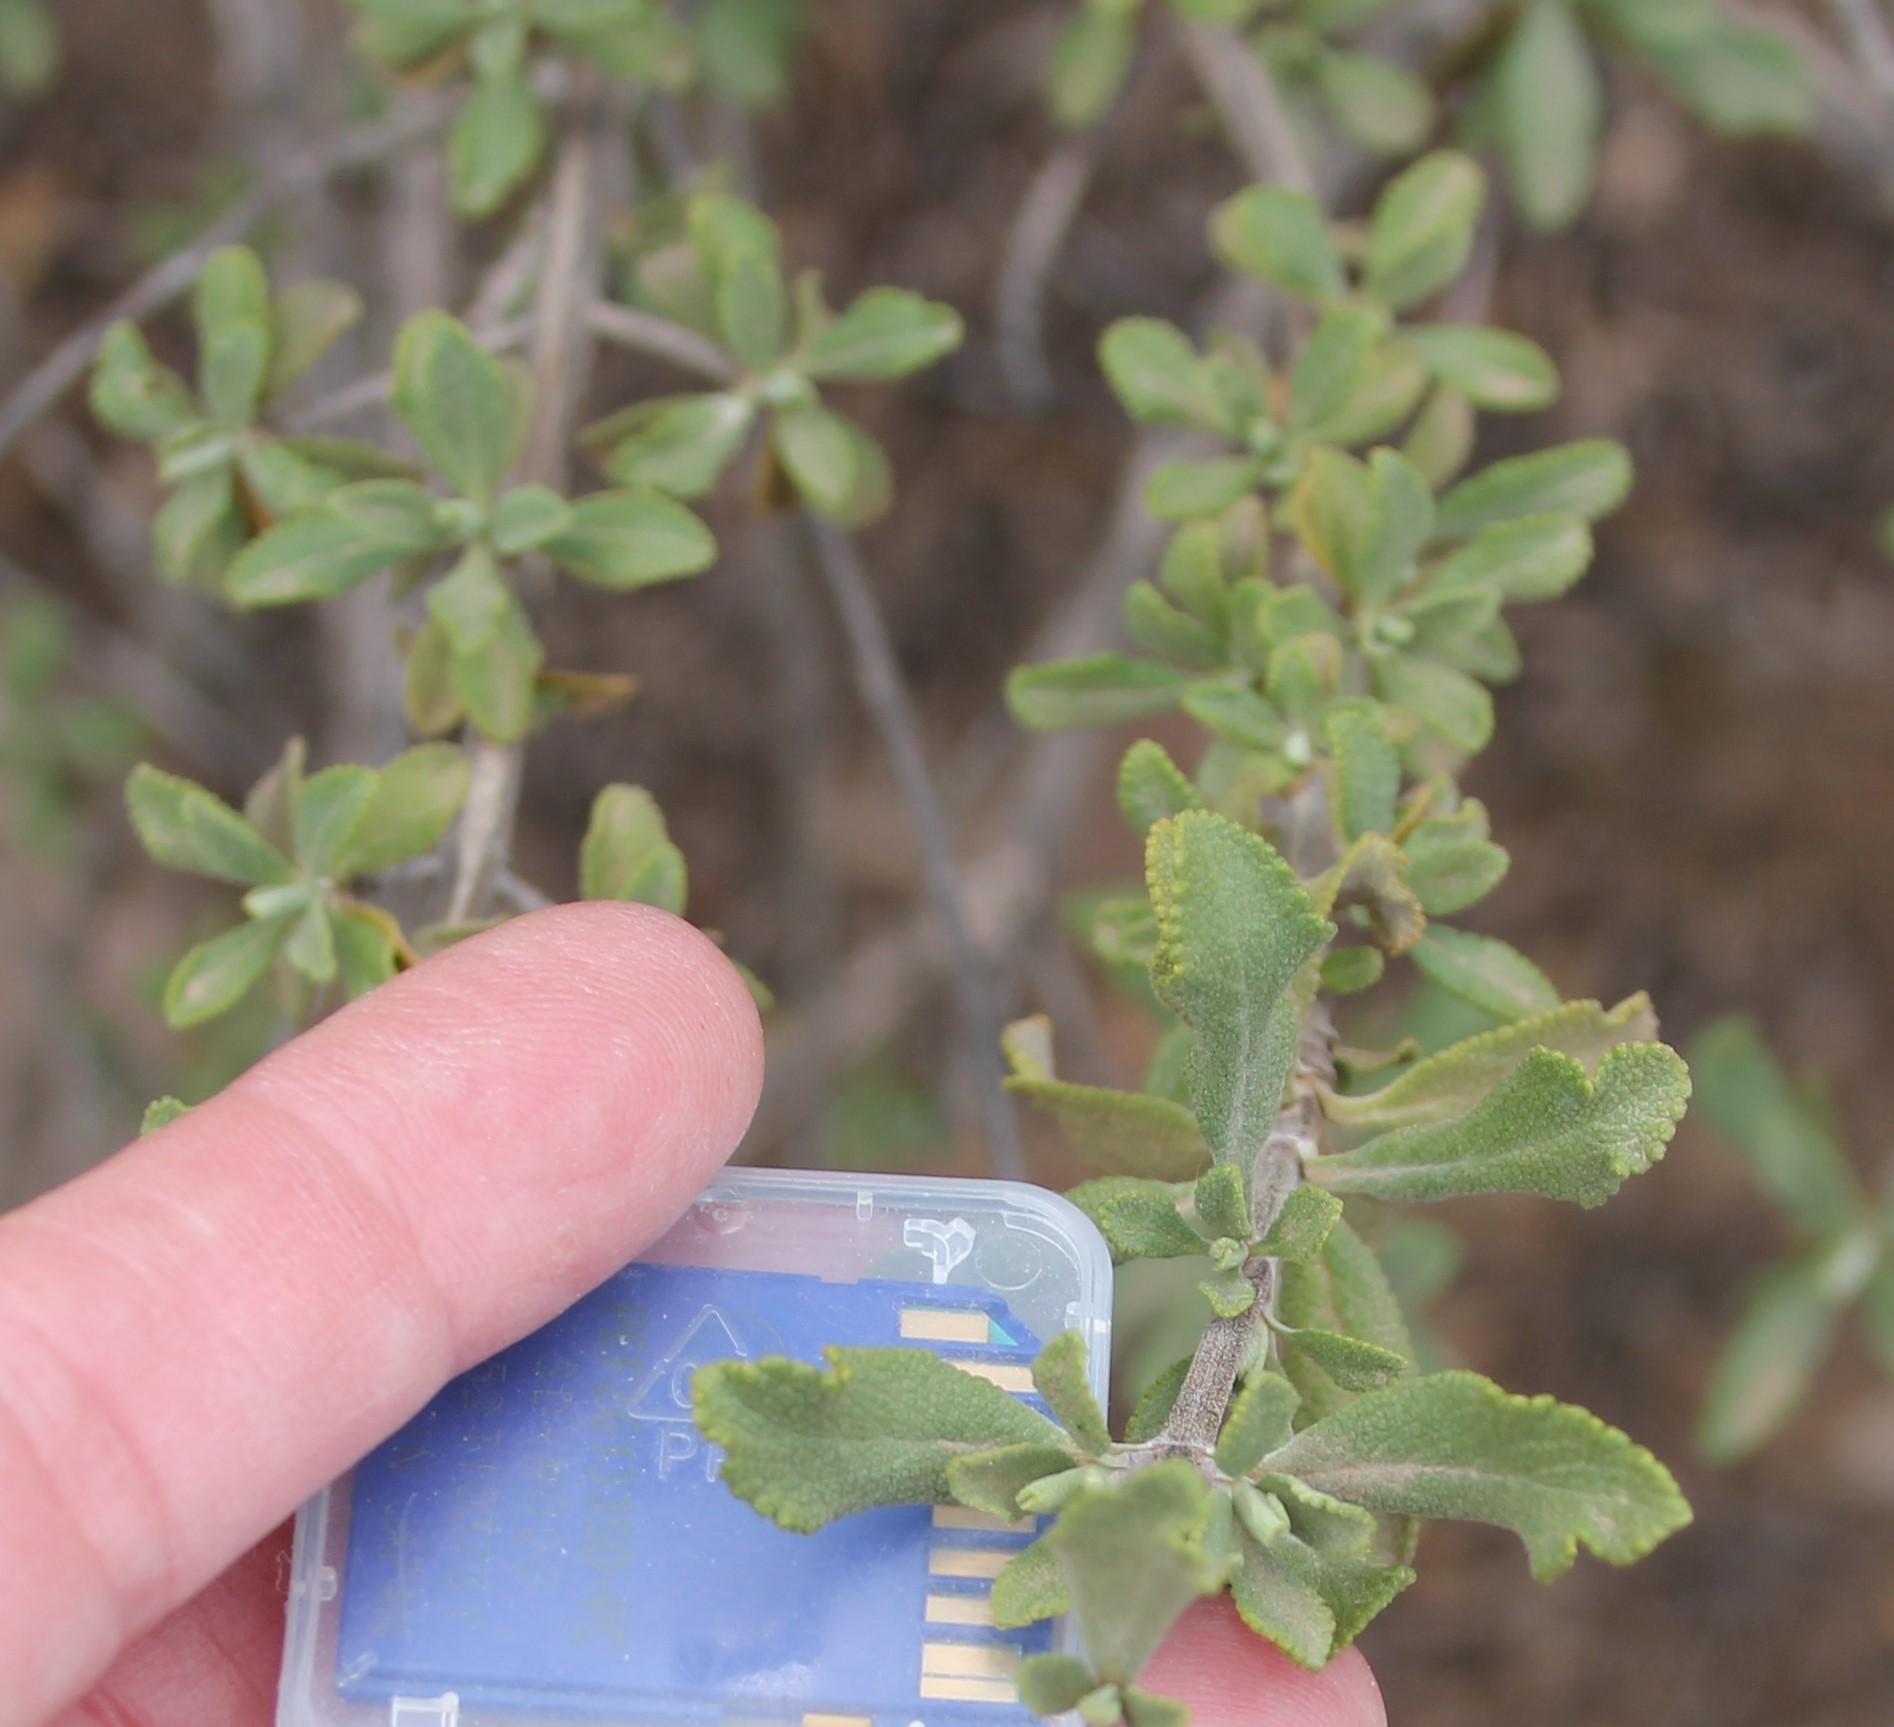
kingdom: Plantae
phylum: Tracheophyta
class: Magnoliopsida
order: Lamiales
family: Lamiaceae
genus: Salvia
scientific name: Salvia munzii
